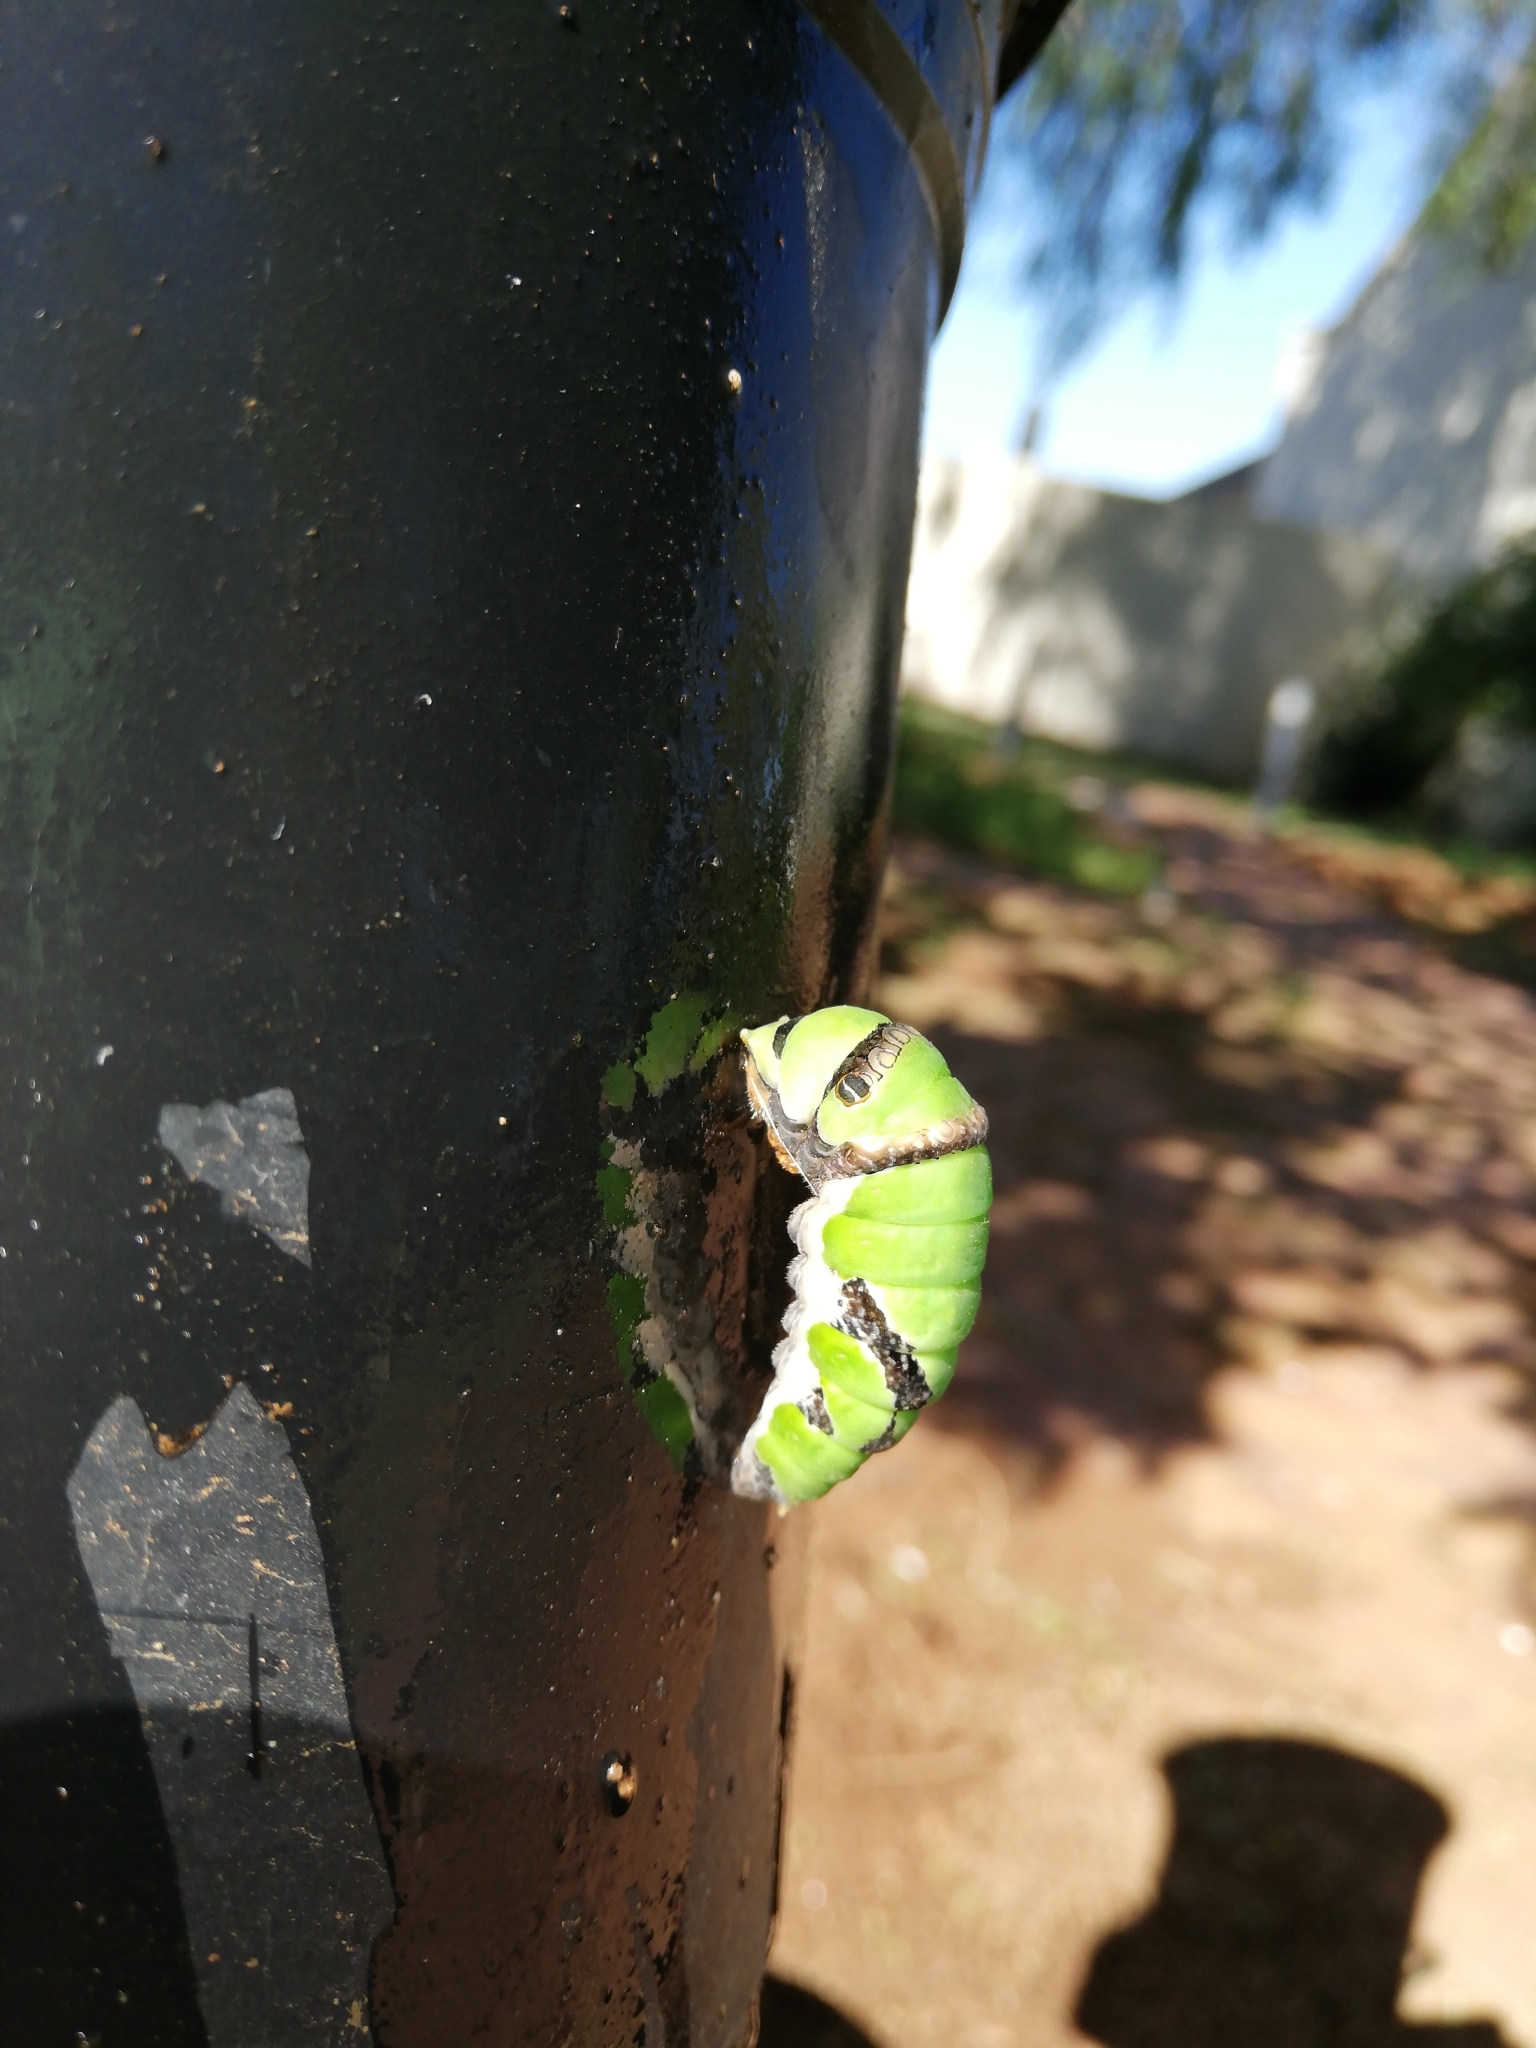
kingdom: Animalia
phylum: Arthropoda
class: Insecta
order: Lepidoptera
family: Papilionidae
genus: Papilio
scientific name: Papilio demodocus
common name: Christmas butterfly
